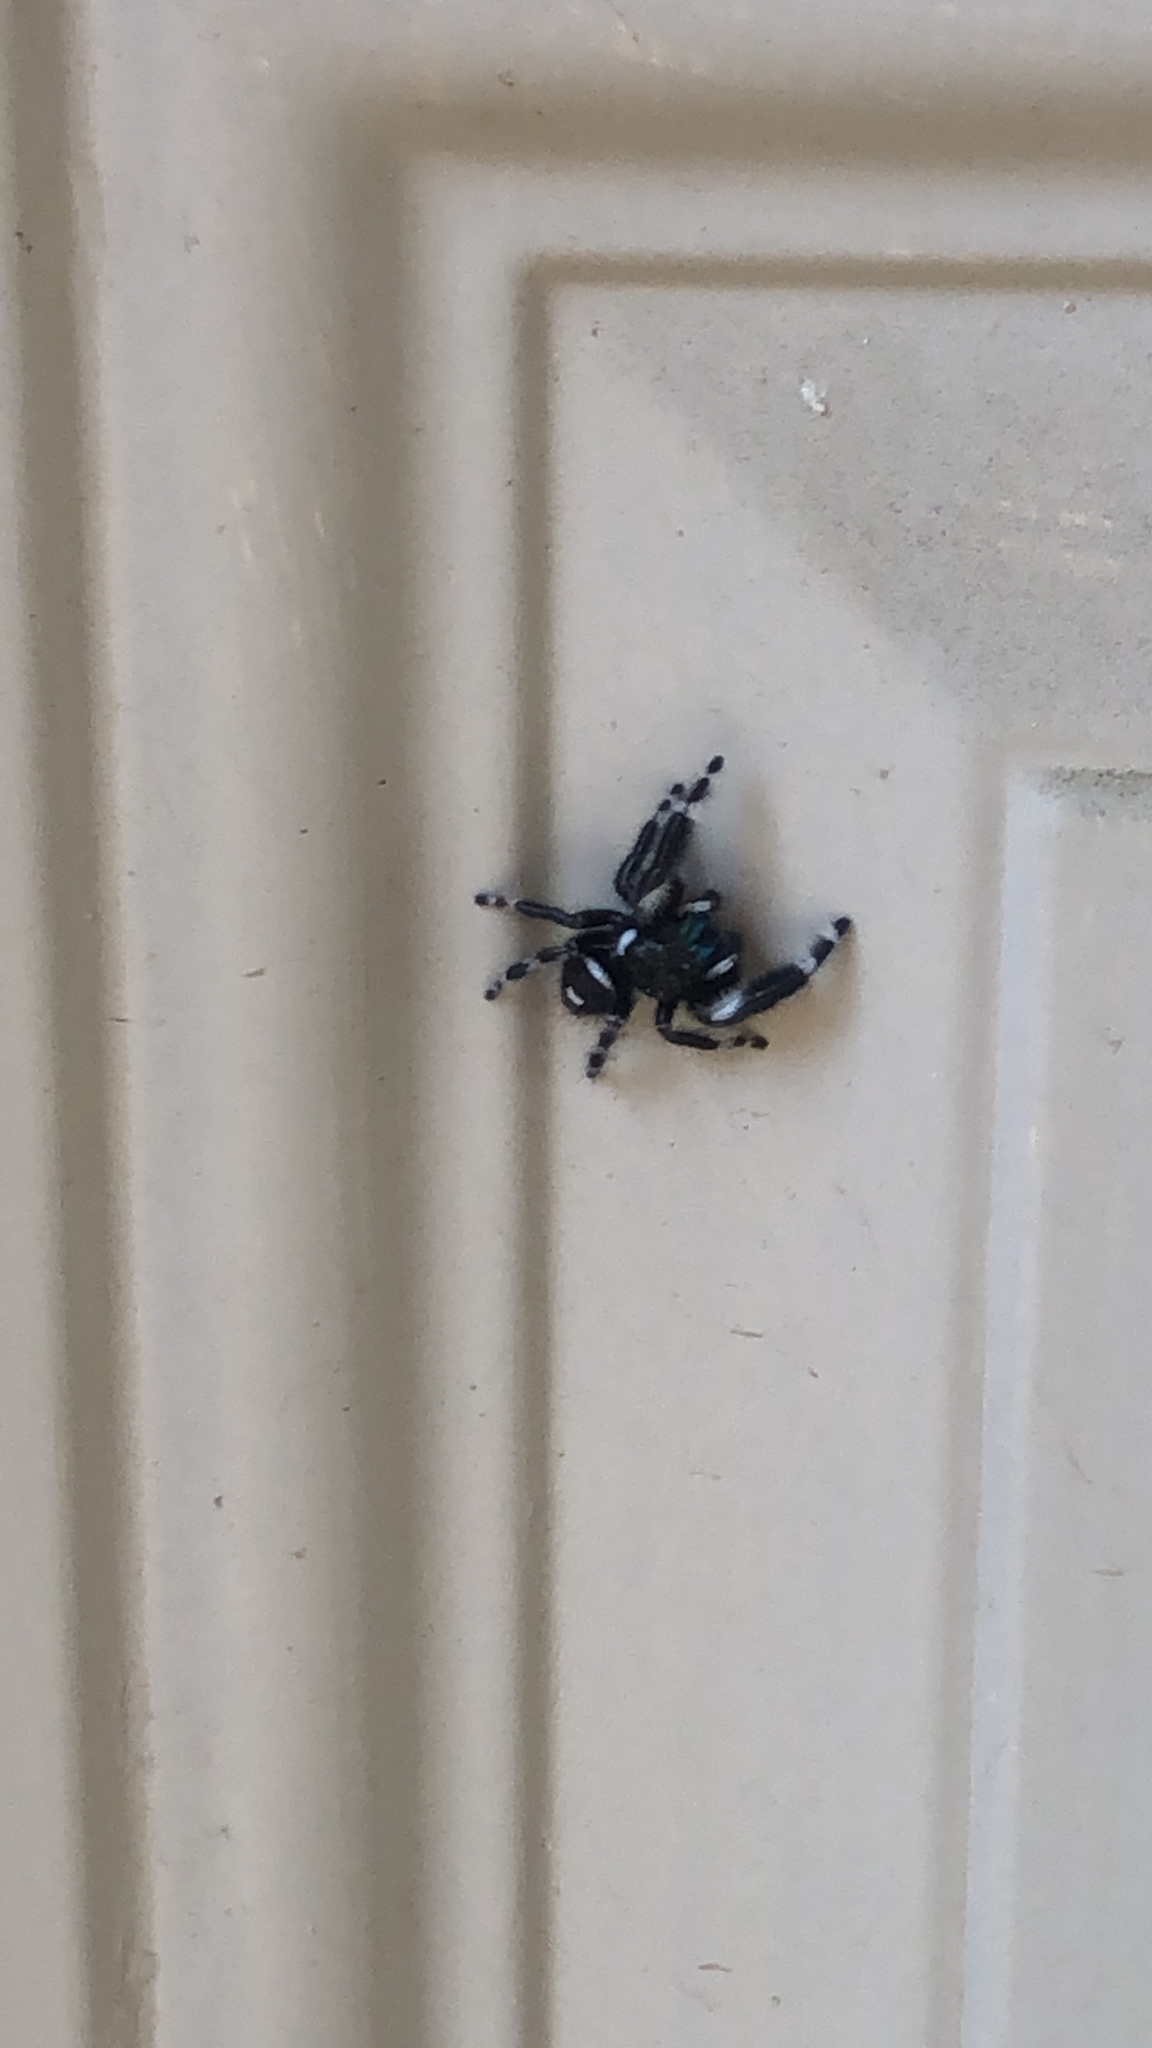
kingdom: Animalia
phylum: Arthropoda
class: Arachnida
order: Araneae
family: Salticidae
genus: Phidippus
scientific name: Phidippus audax
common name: Bold jumper
